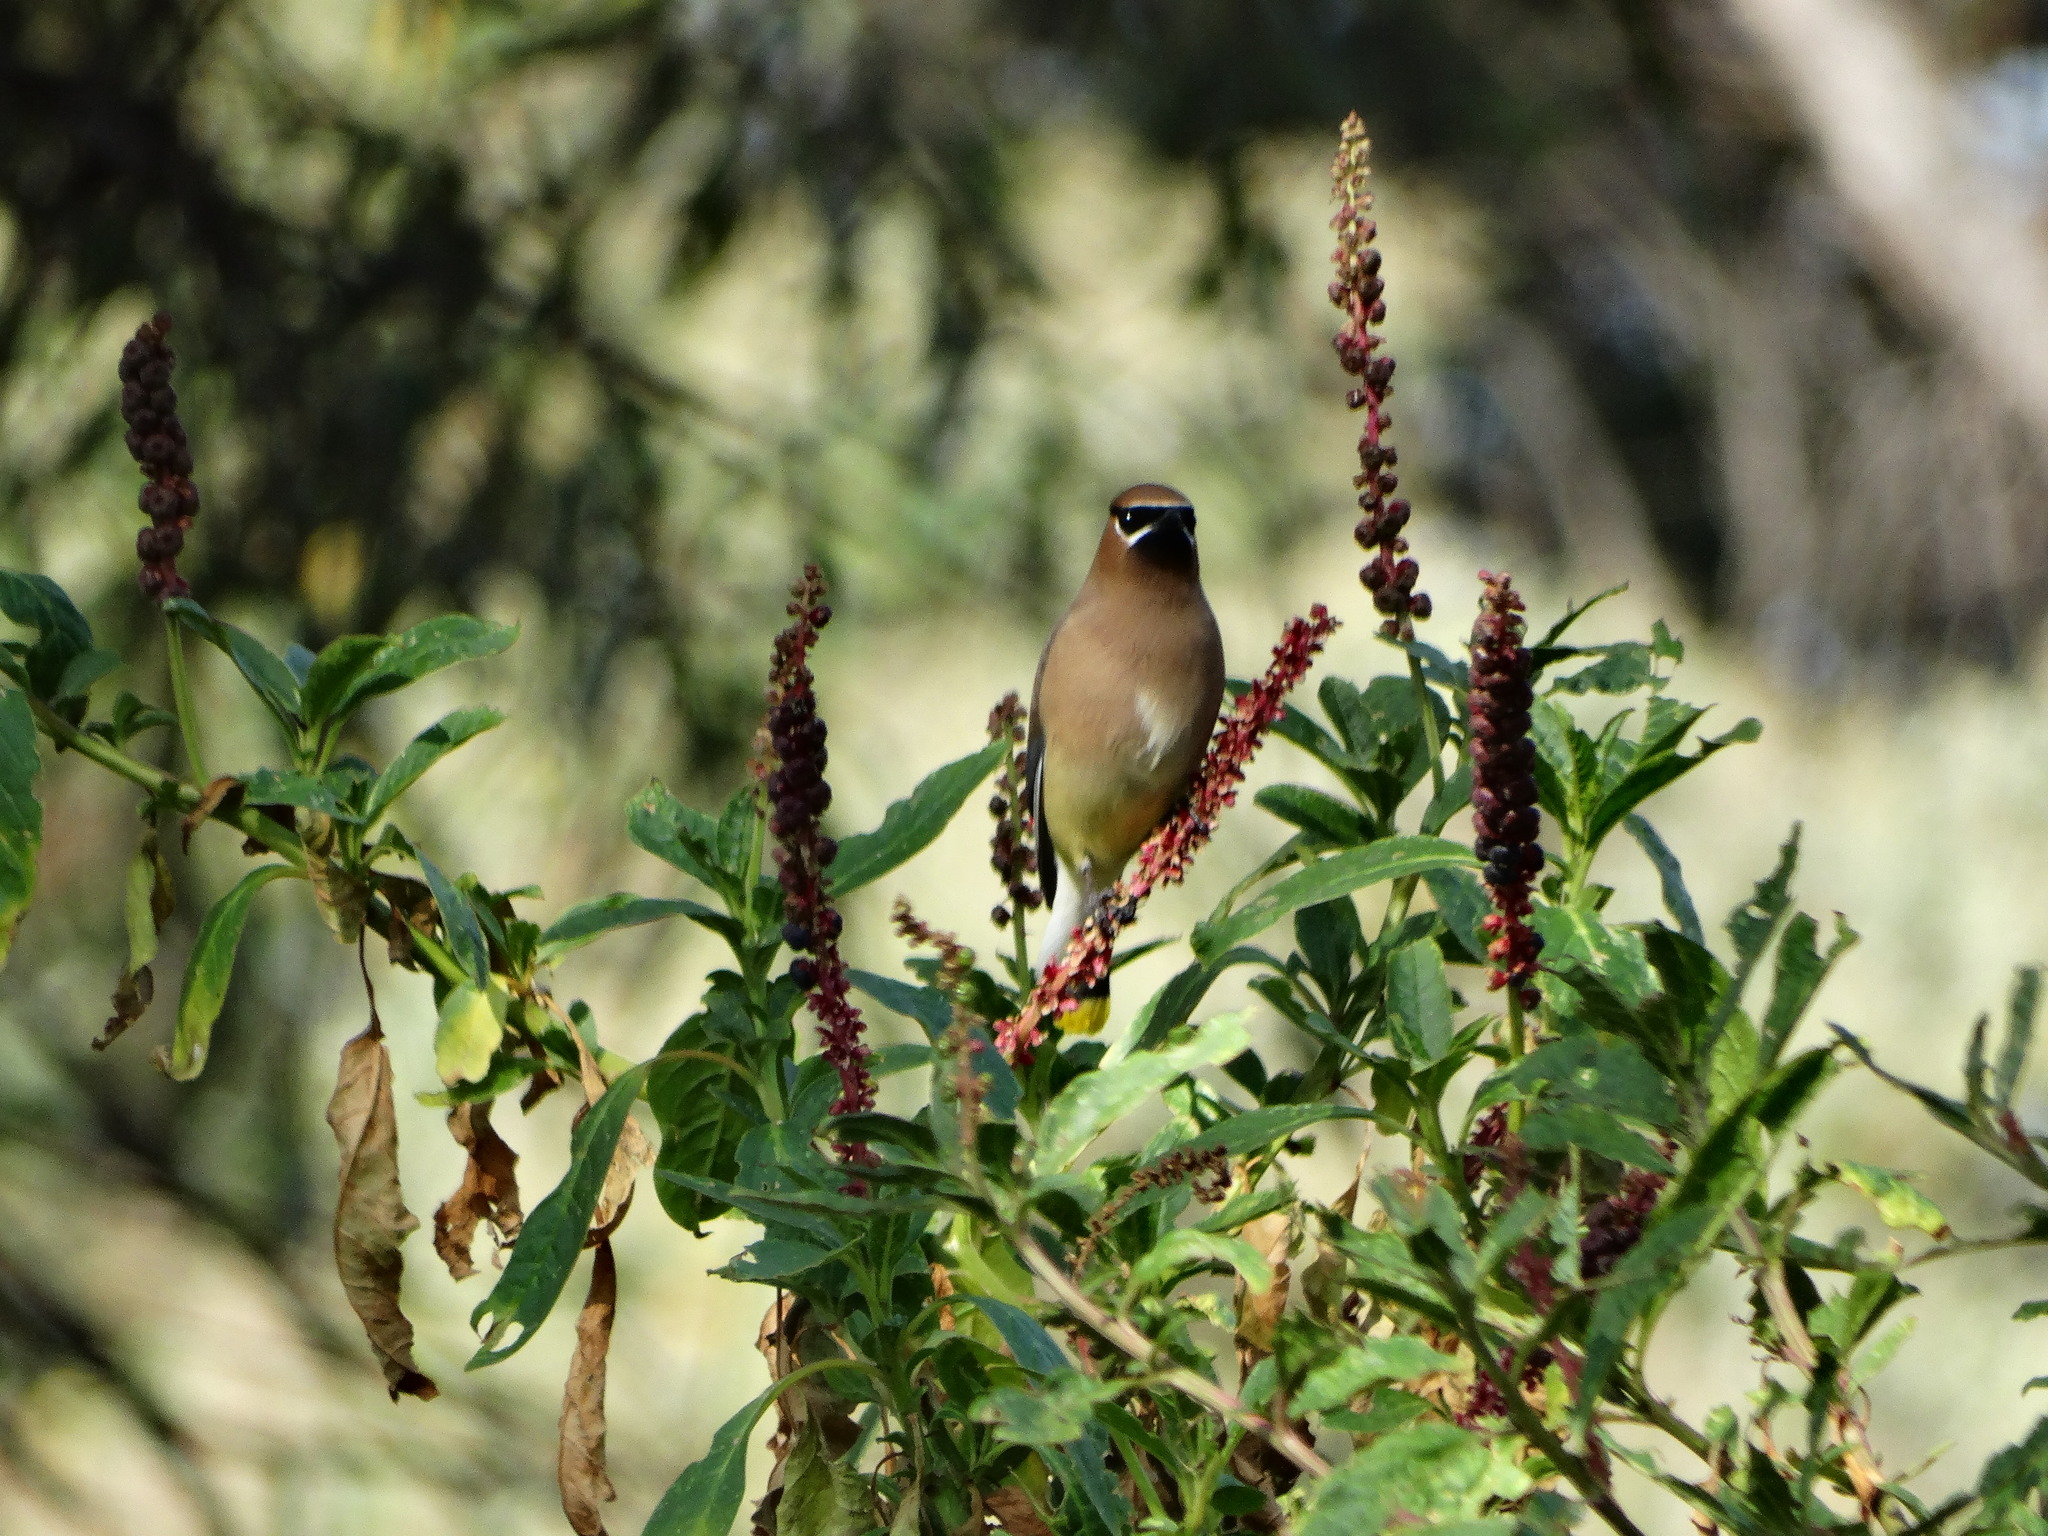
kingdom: Animalia
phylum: Chordata
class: Aves
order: Passeriformes
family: Bombycillidae
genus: Bombycilla
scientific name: Bombycilla cedrorum
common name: Cedar waxwing
